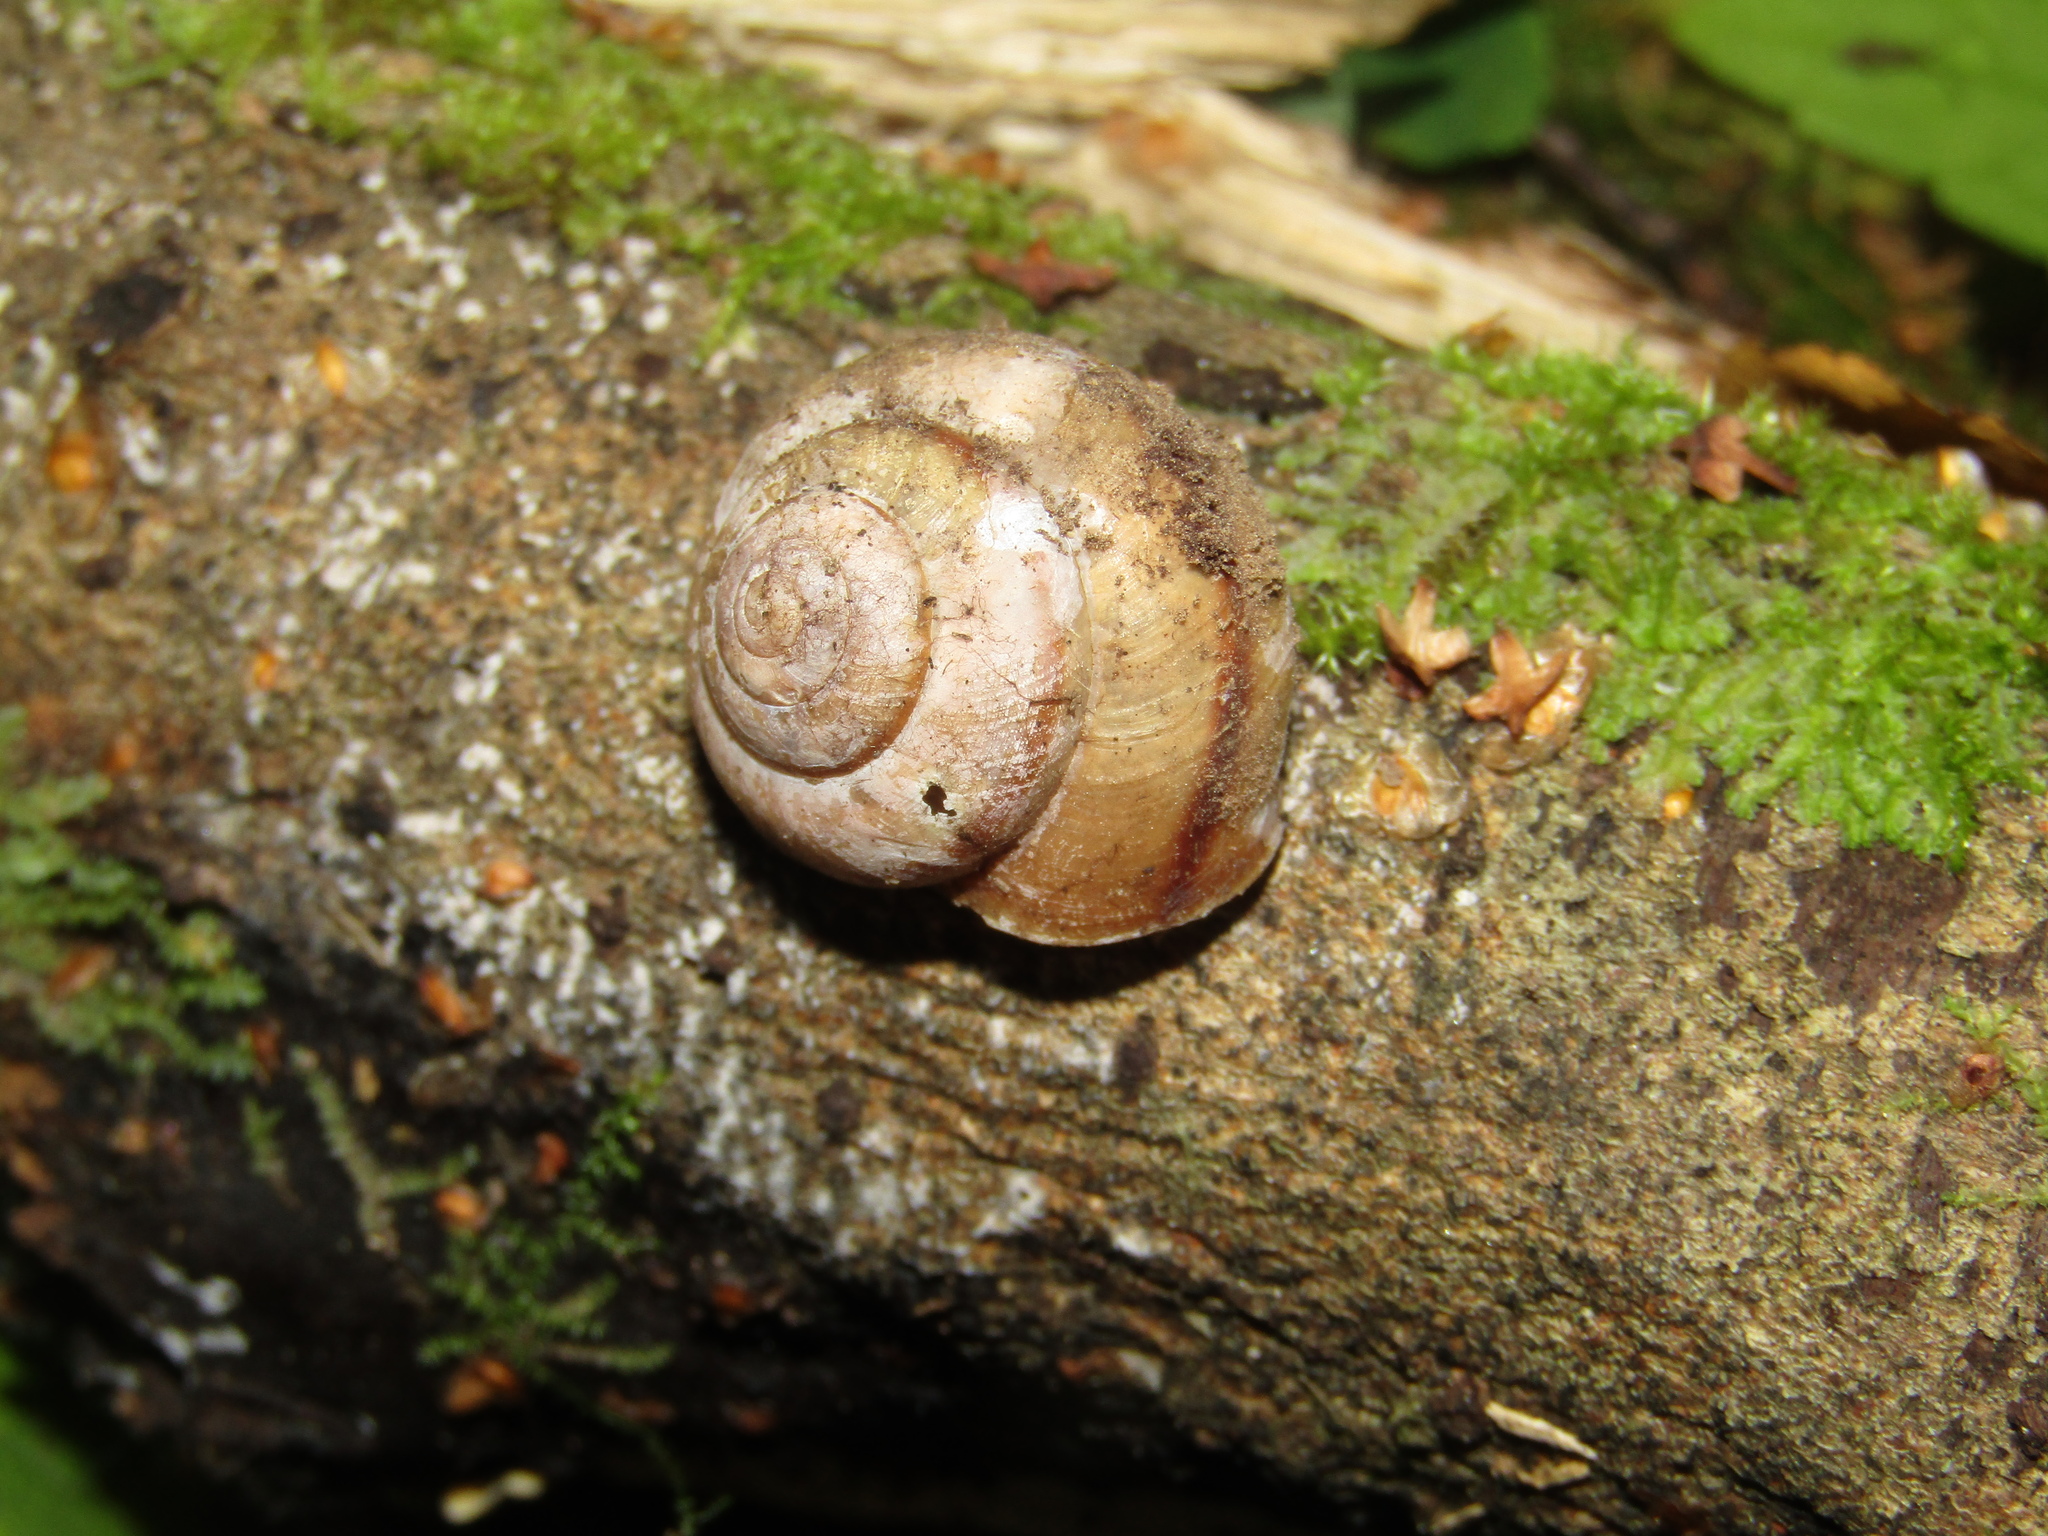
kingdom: Animalia
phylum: Mollusca
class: Gastropoda
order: Stylommatophora
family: Camaenidae
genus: Fruticicola
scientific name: Fruticicola fruticum
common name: Bush snail
